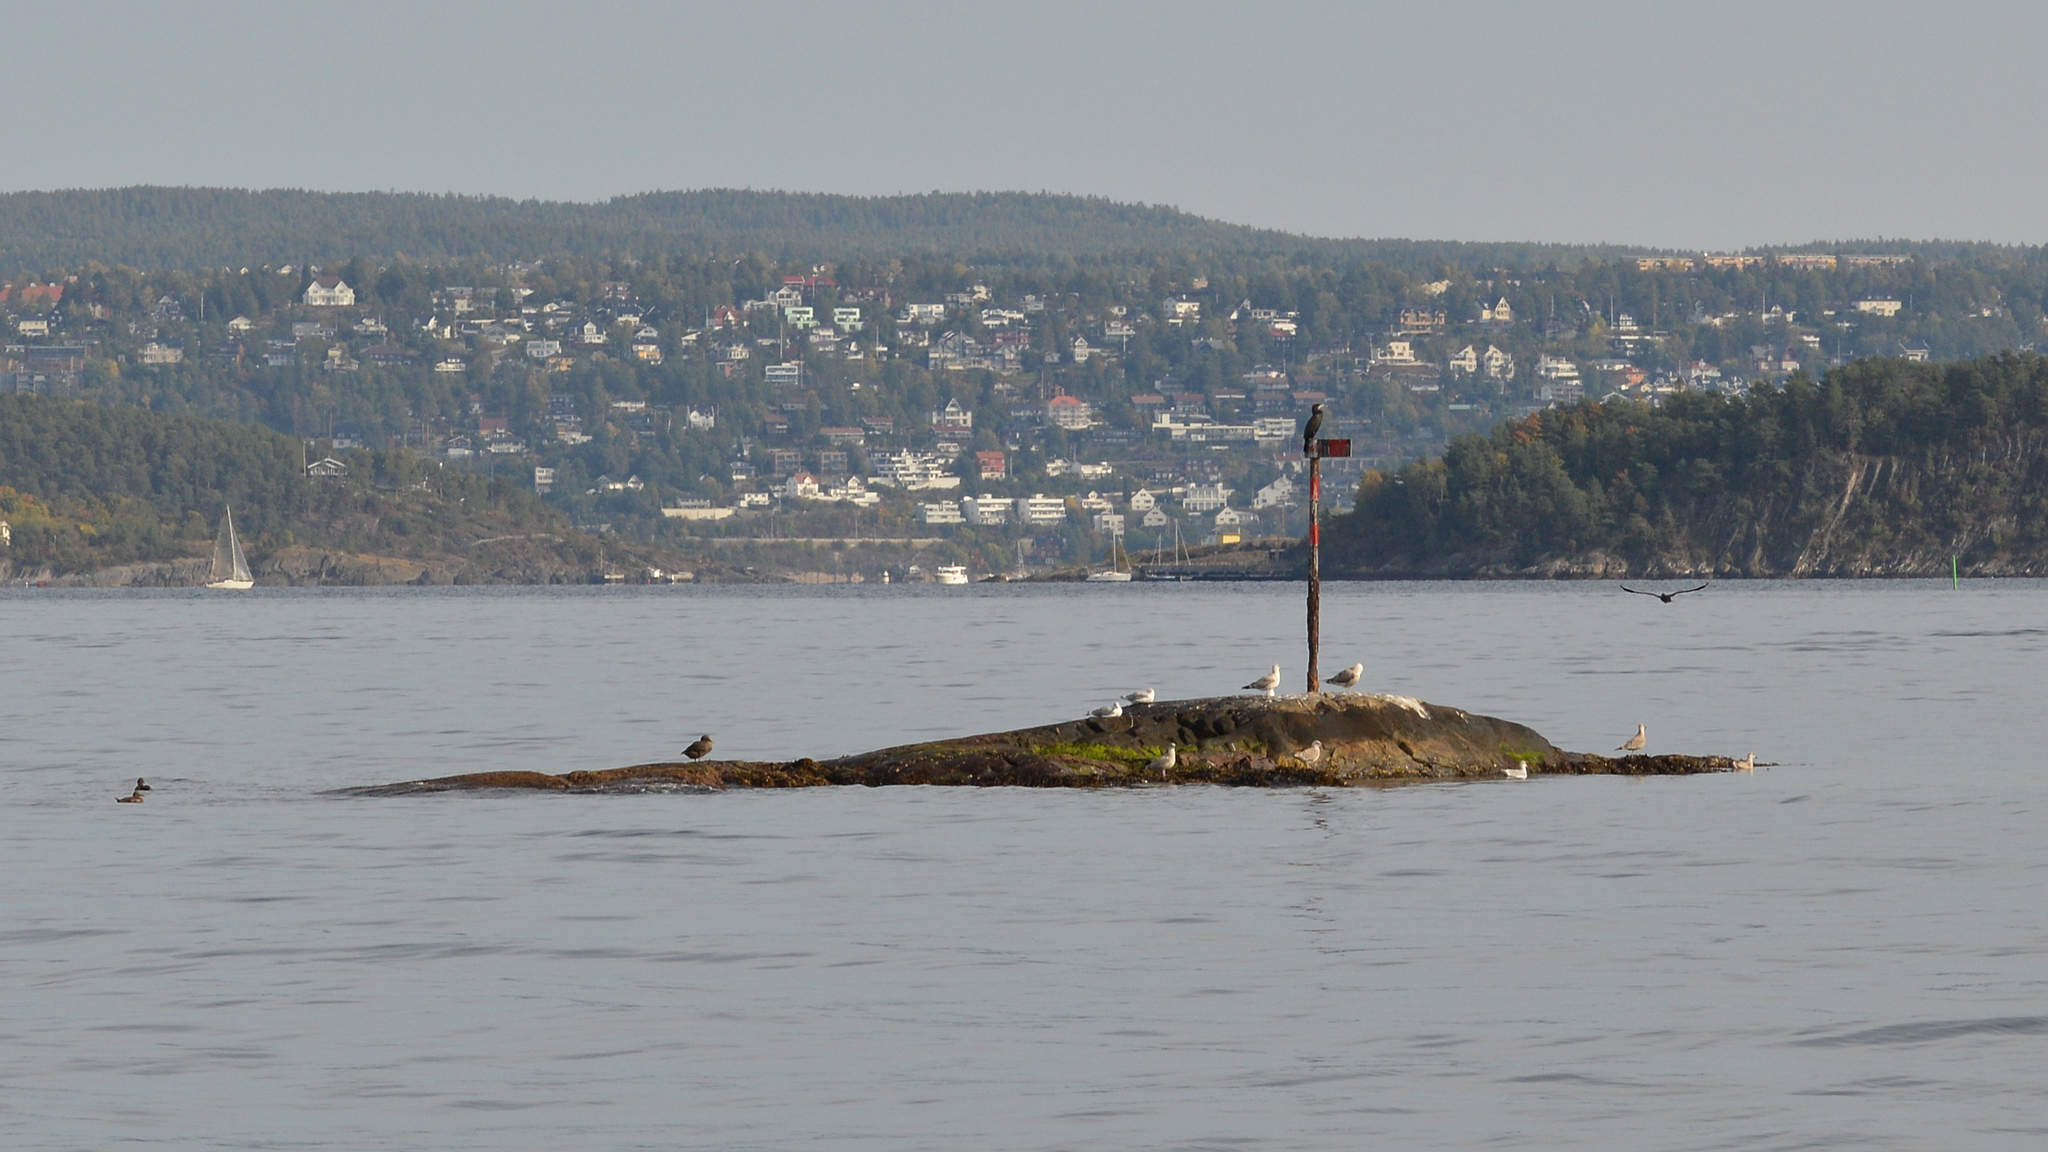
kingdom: Animalia
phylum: Chordata
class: Aves
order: Suliformes
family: Phalacrocoracidae
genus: Phalacrocorax
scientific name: Phalacrocorax carbo
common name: Great cormorant
